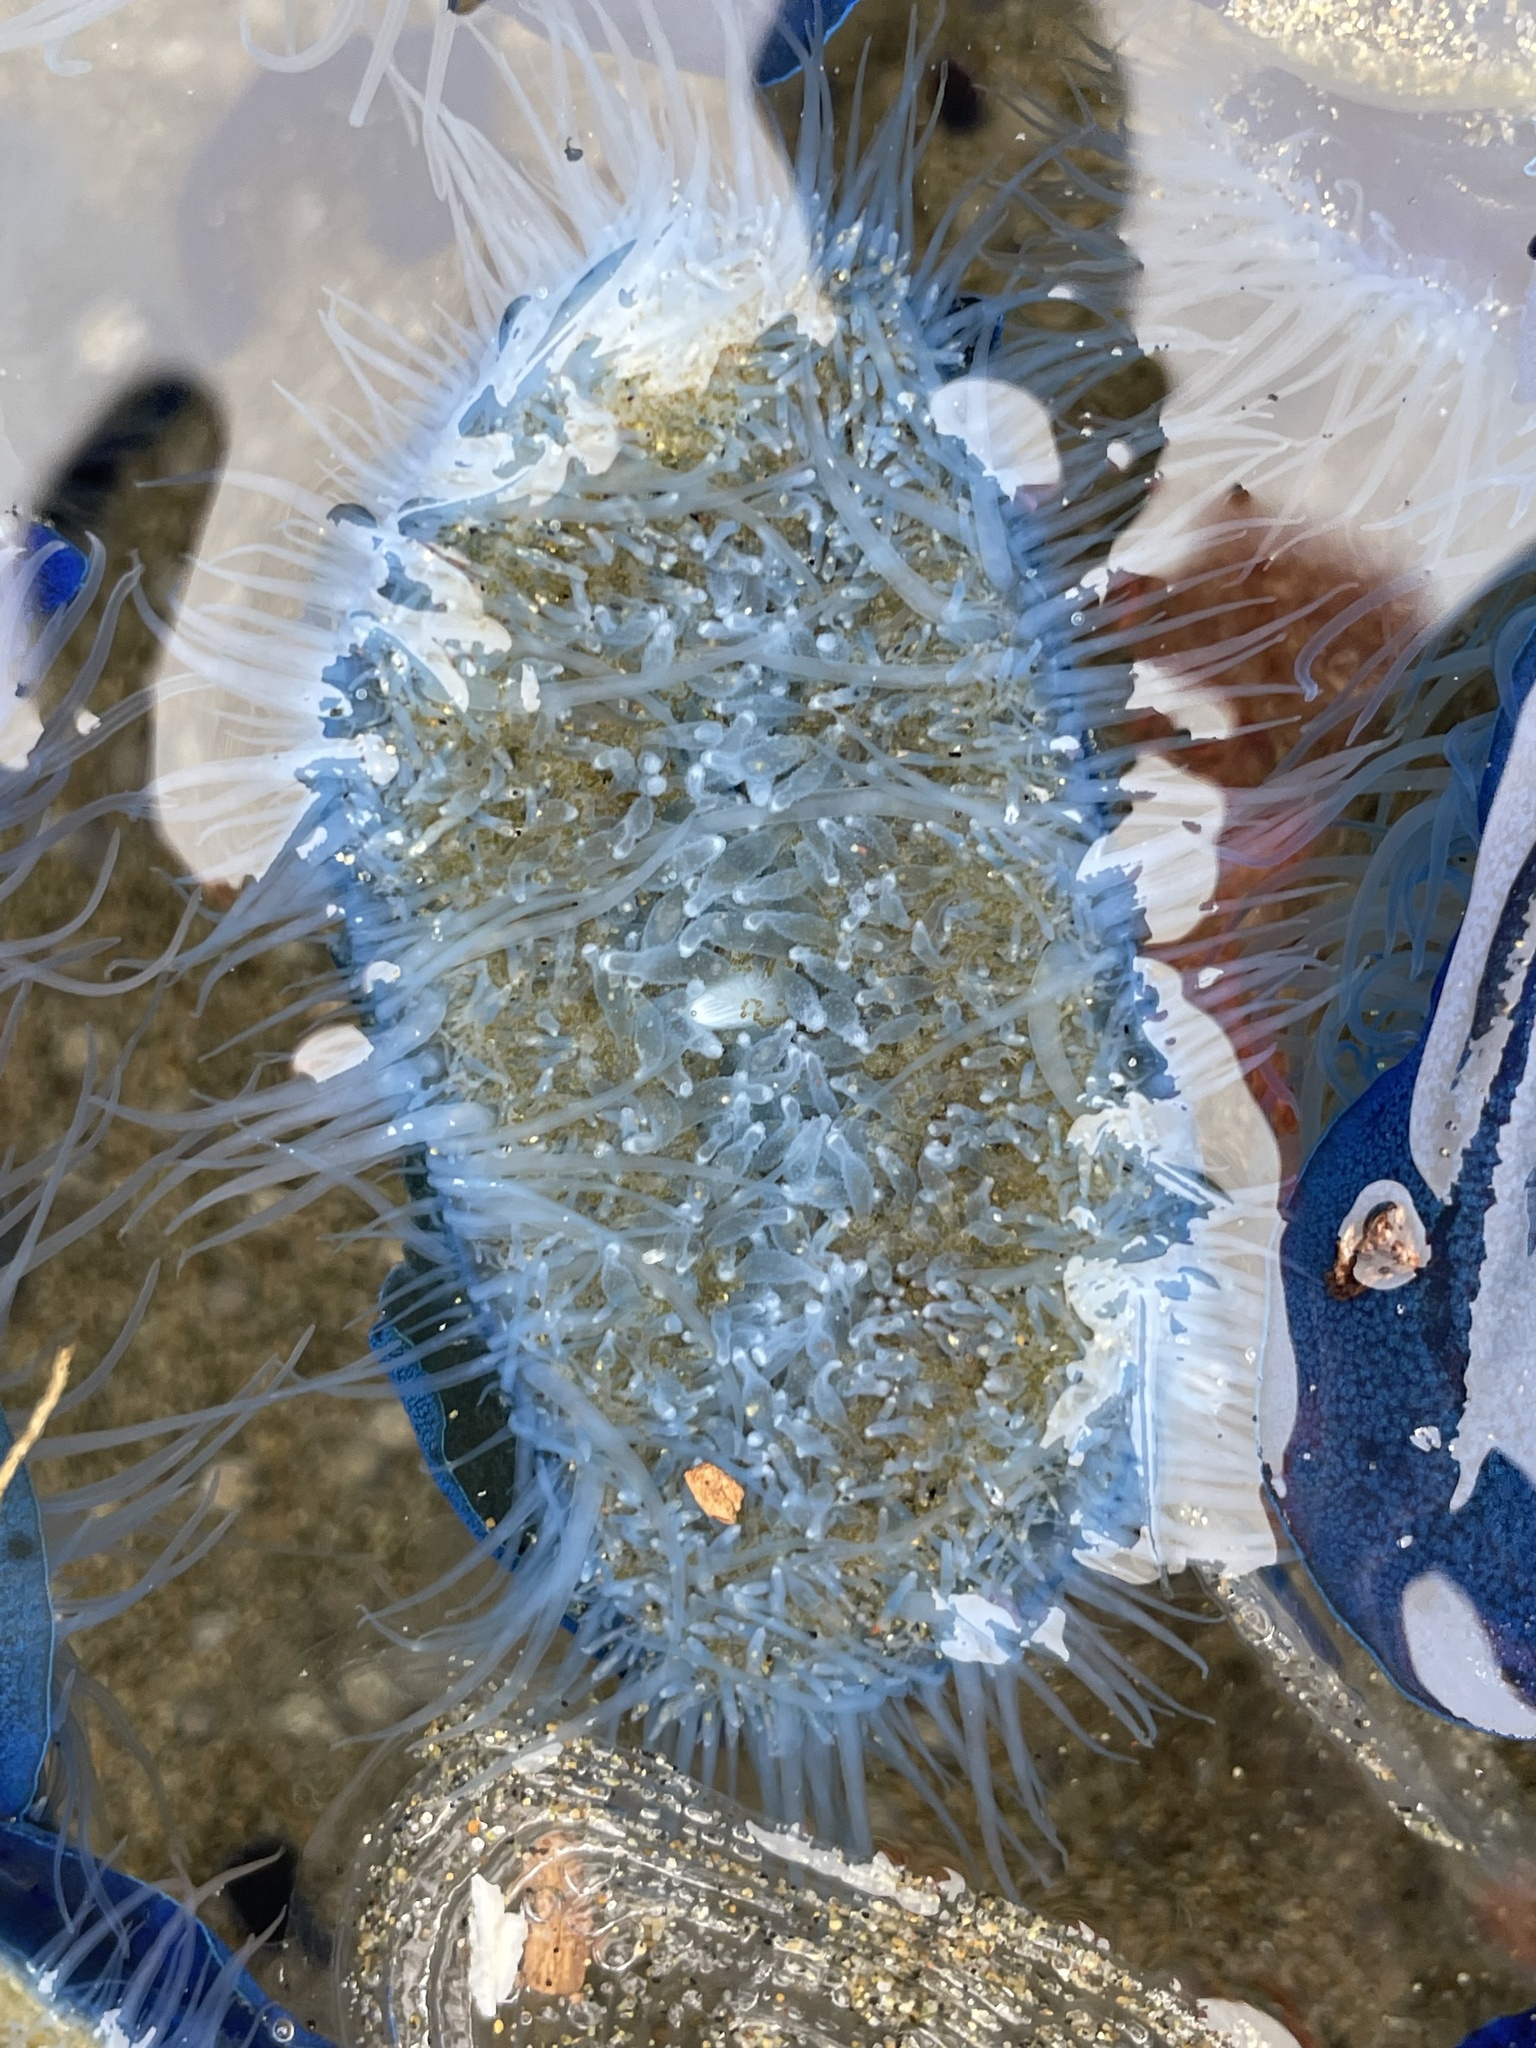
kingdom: Animalia
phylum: Cnidaria
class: Hydrozoa
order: Anthoathecata
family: Porpitidae
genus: Velella
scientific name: Velella velella
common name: By-the-wind-sailor
